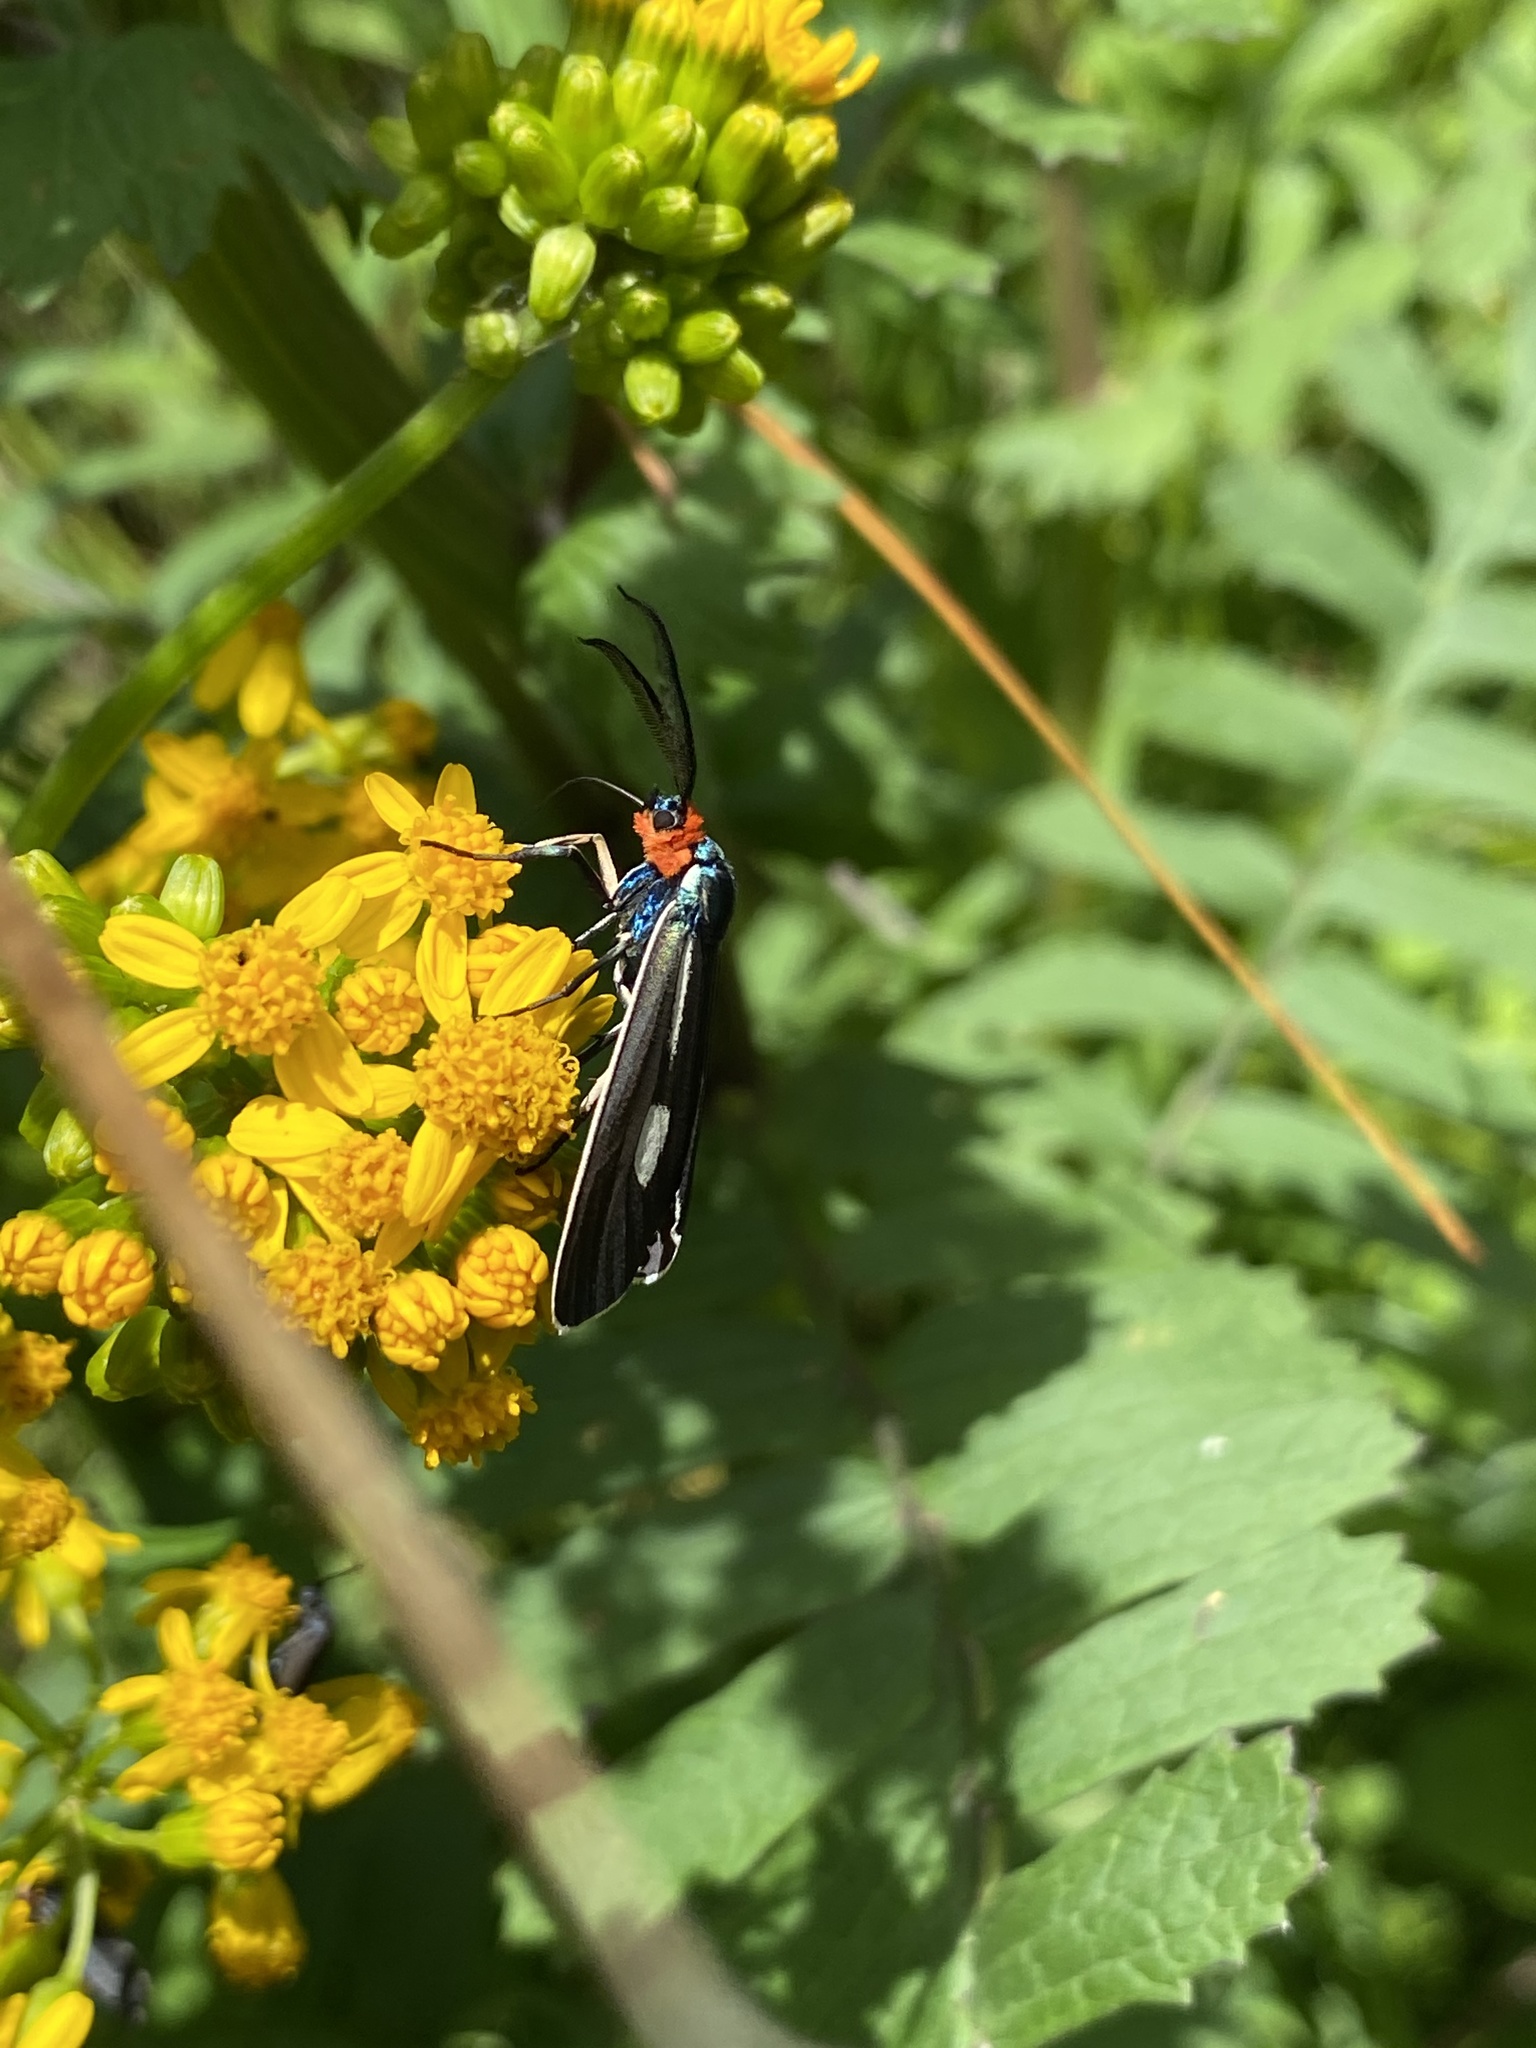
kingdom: Animalia
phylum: Arthropoda
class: Insecta
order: Lepidoptera
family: Erebidae
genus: Ctenucha
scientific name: Ctenucha ruficeps
